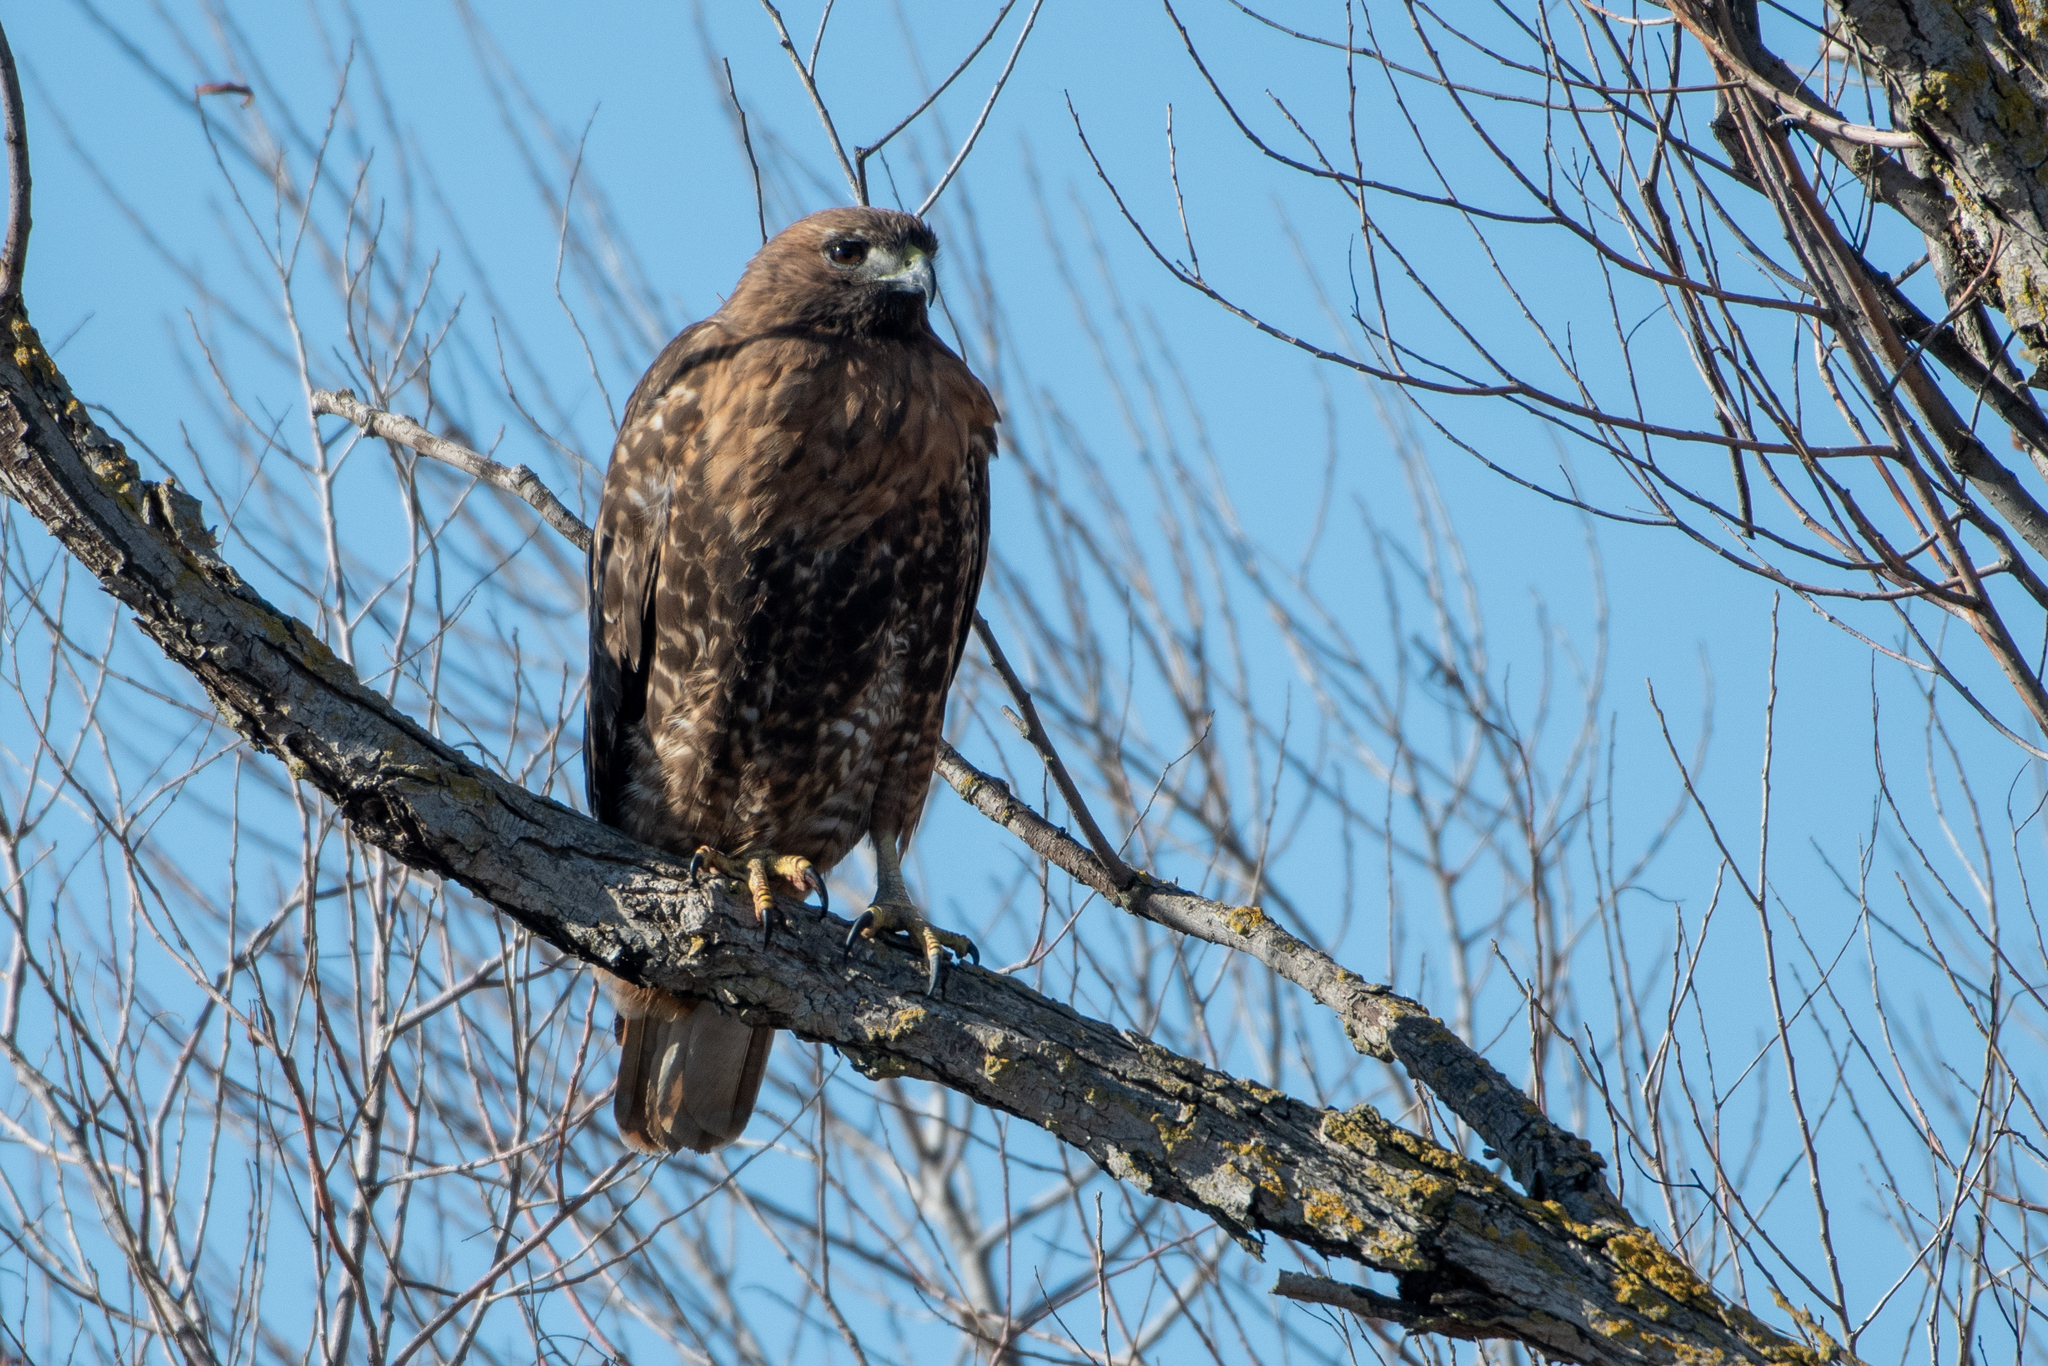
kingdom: Animalia
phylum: Chordata
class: Aves
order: Accipitriformes
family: Accipitridae
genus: Buteo
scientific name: Buteo jamaicensis
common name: Red-tailed hawk
